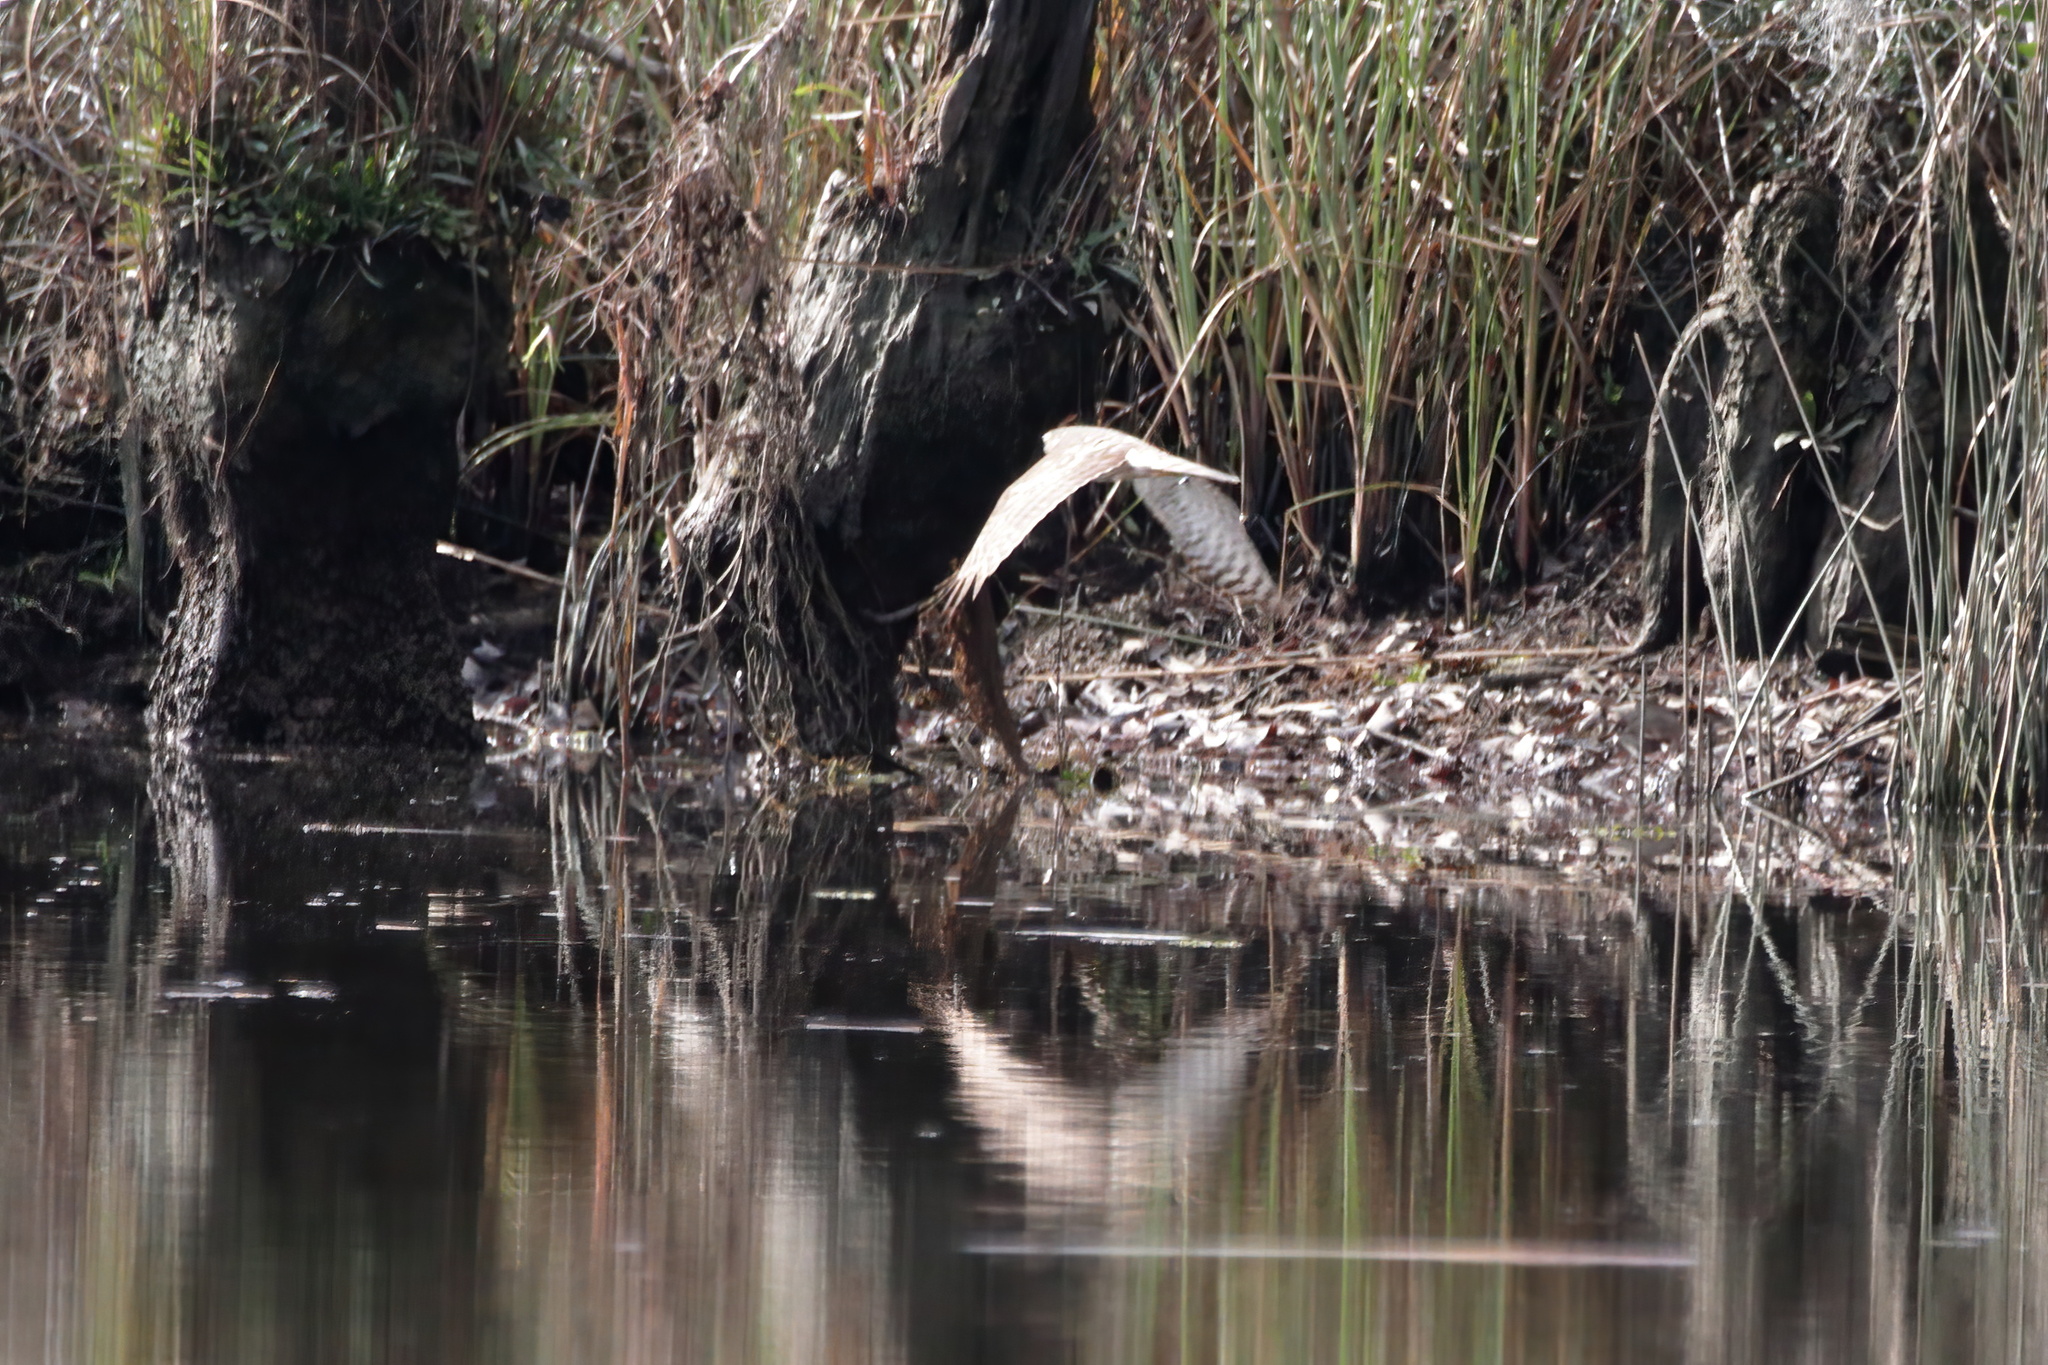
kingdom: Animalia
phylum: Chordata
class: Aves
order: Accipitriformes
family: Accipitridae
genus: Accipiter
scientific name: Accipiter cooperii
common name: Cooper's hawk
